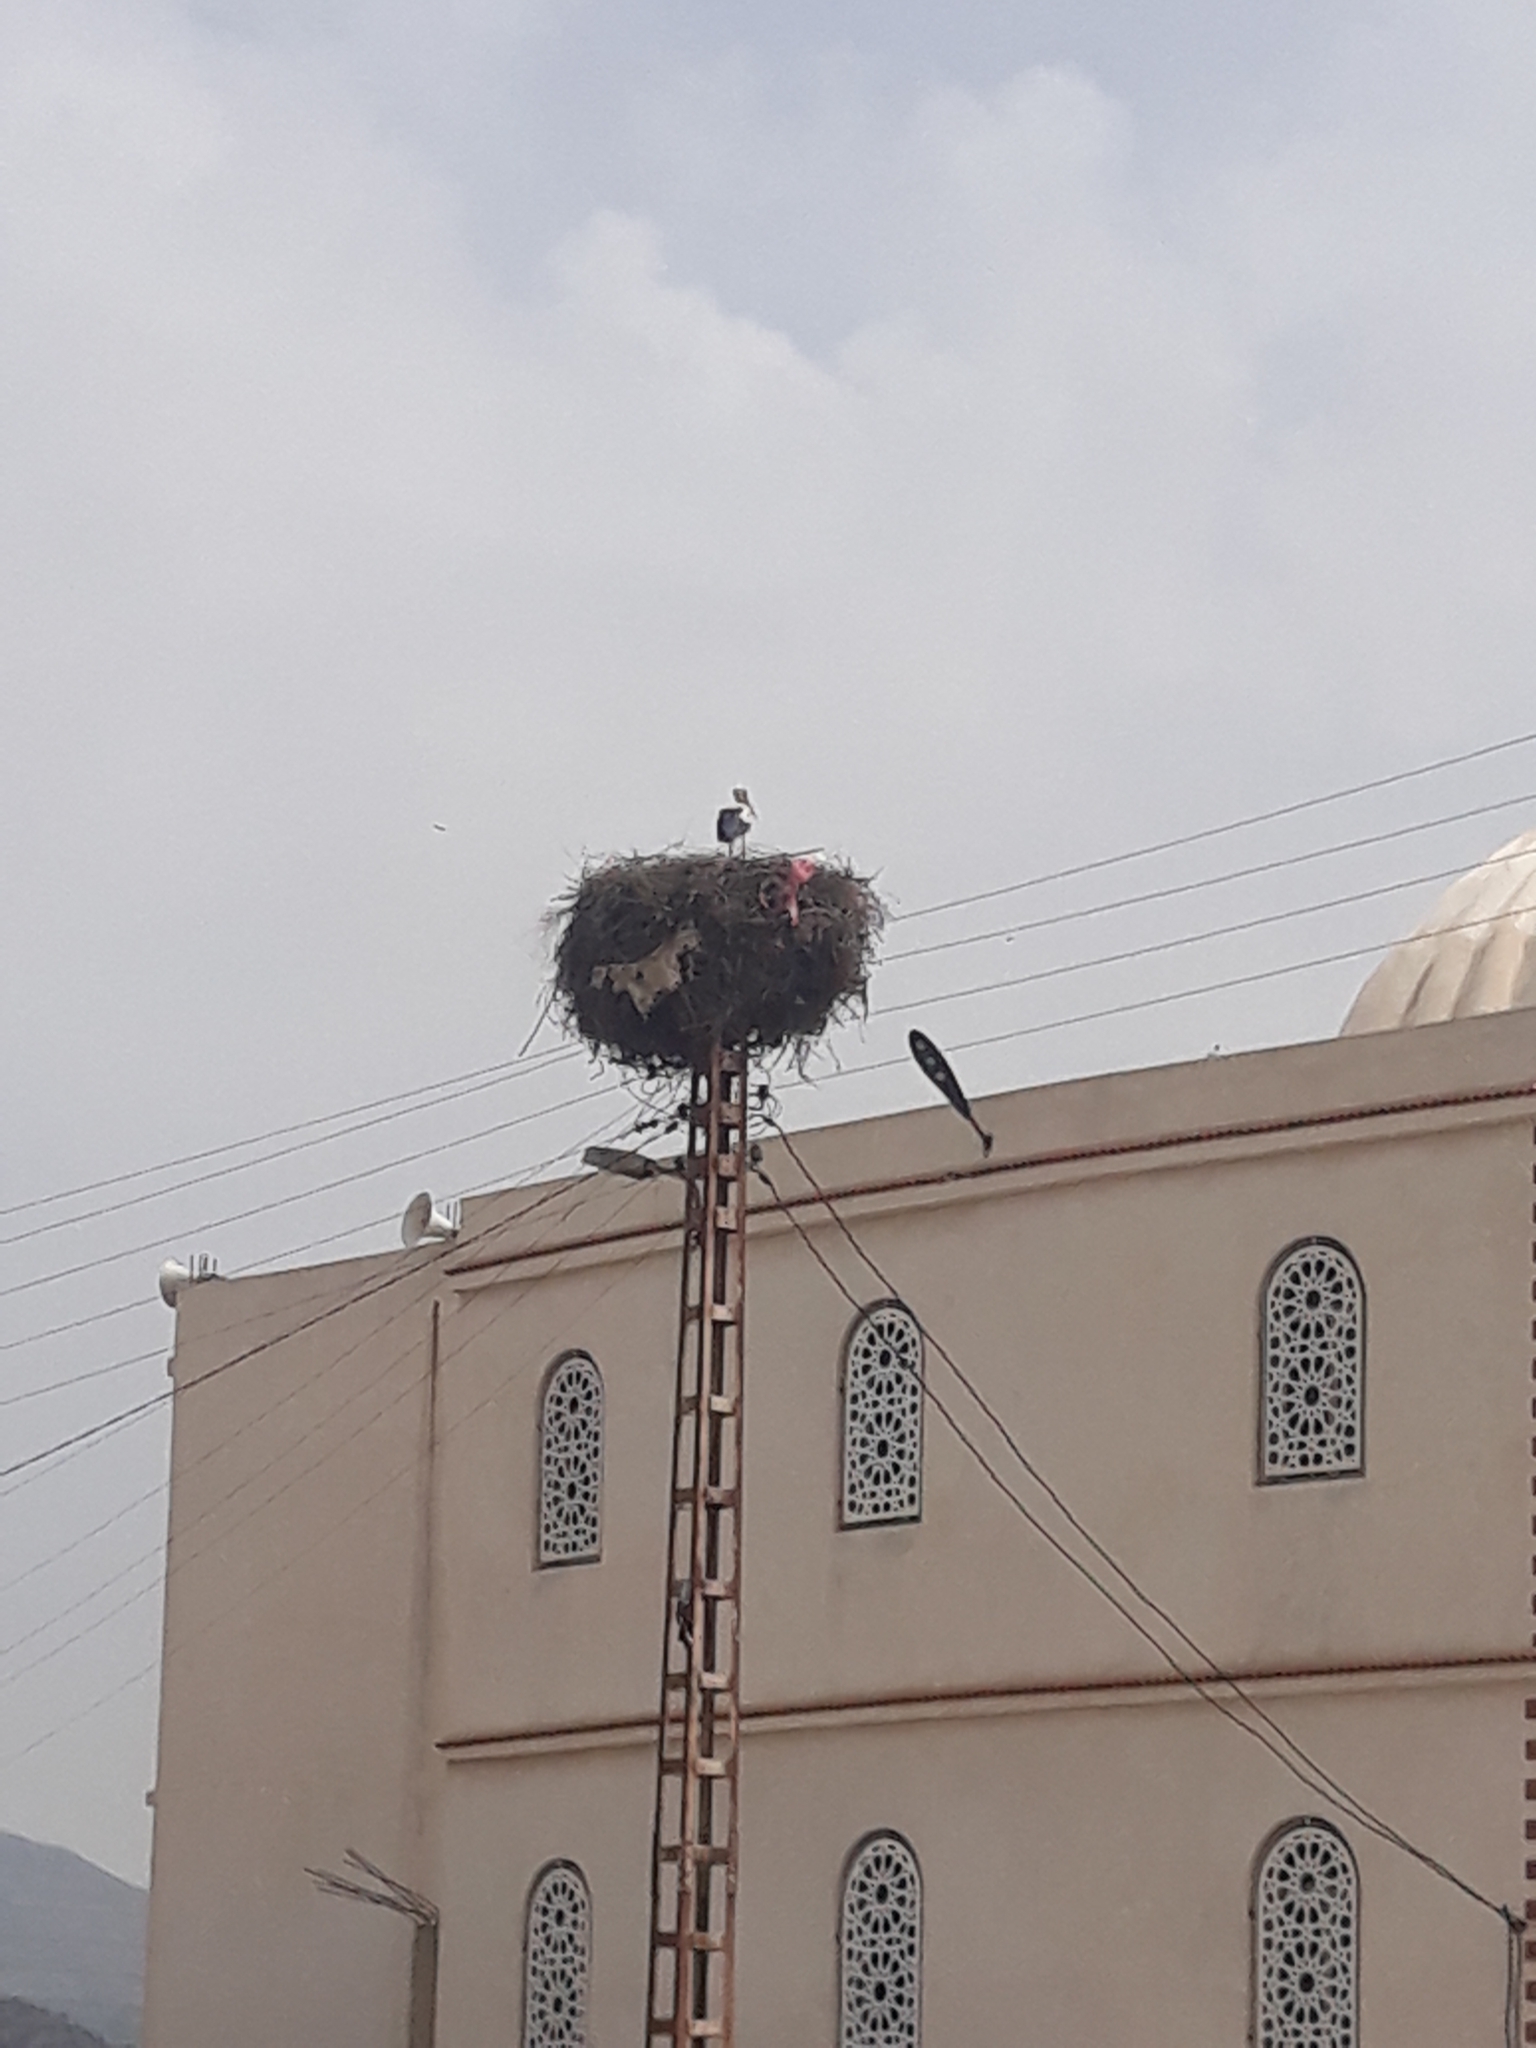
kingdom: Animalia
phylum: Chordata
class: Aves
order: Ciconiiformes
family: Ciconiidae
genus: Ciconia
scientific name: Ciconia ciconia
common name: White stork
